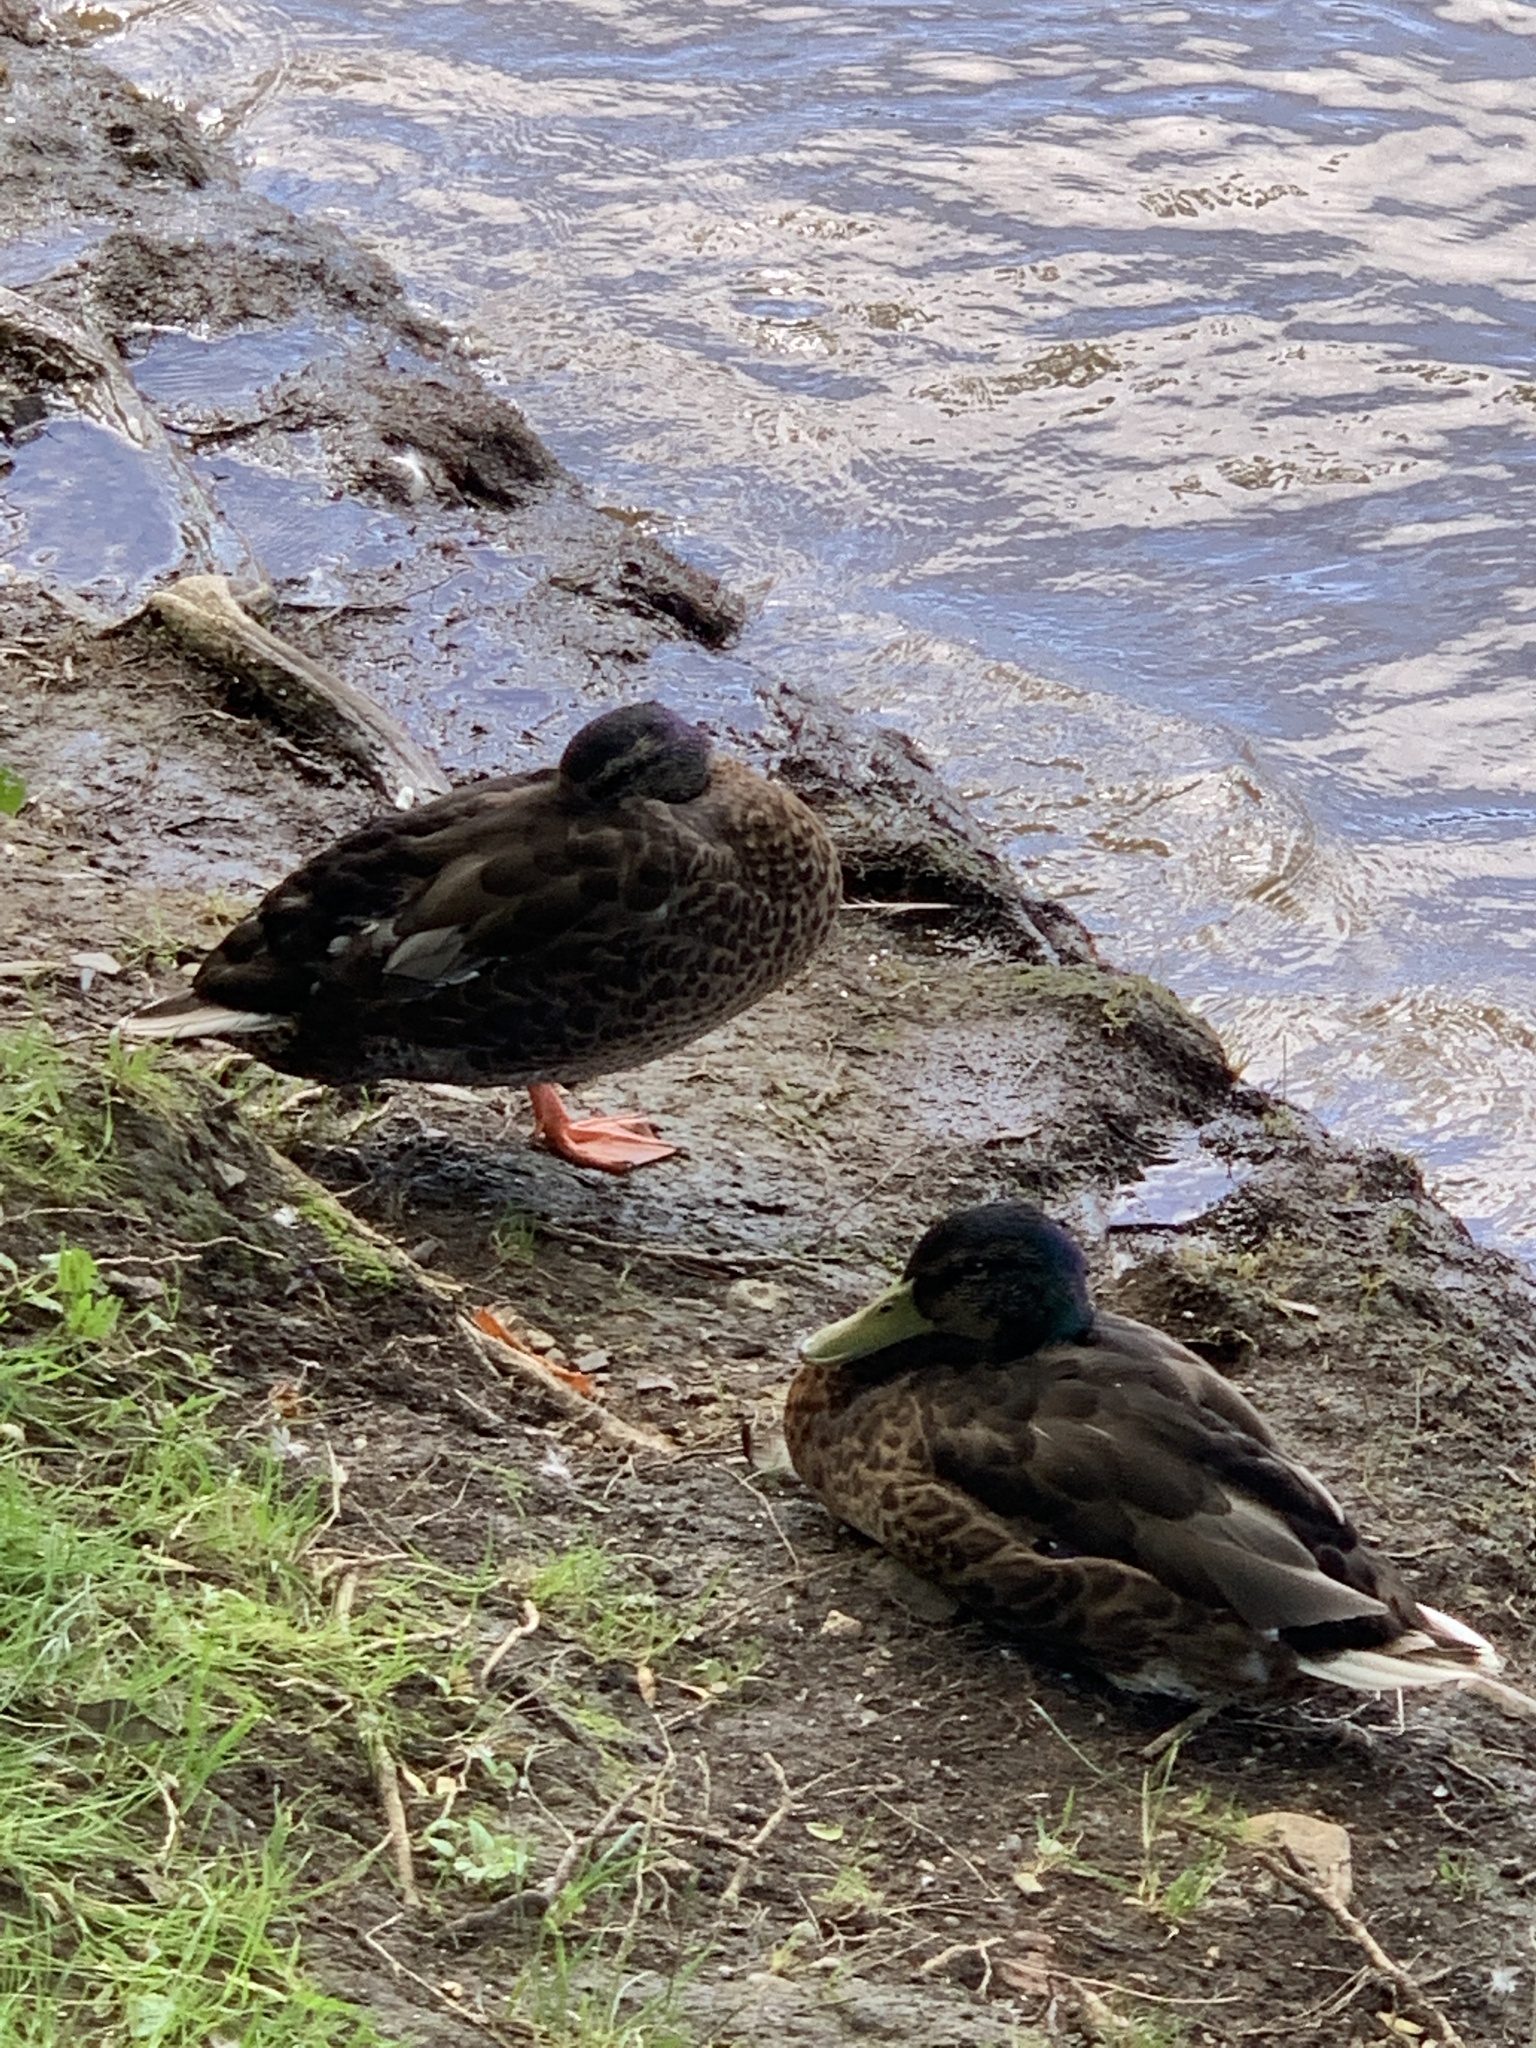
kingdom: Animalia
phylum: Chordata
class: Aves
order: Anseriformes
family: Anatidae
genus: Anas
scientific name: Anas platyrhynchos
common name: Mallard
